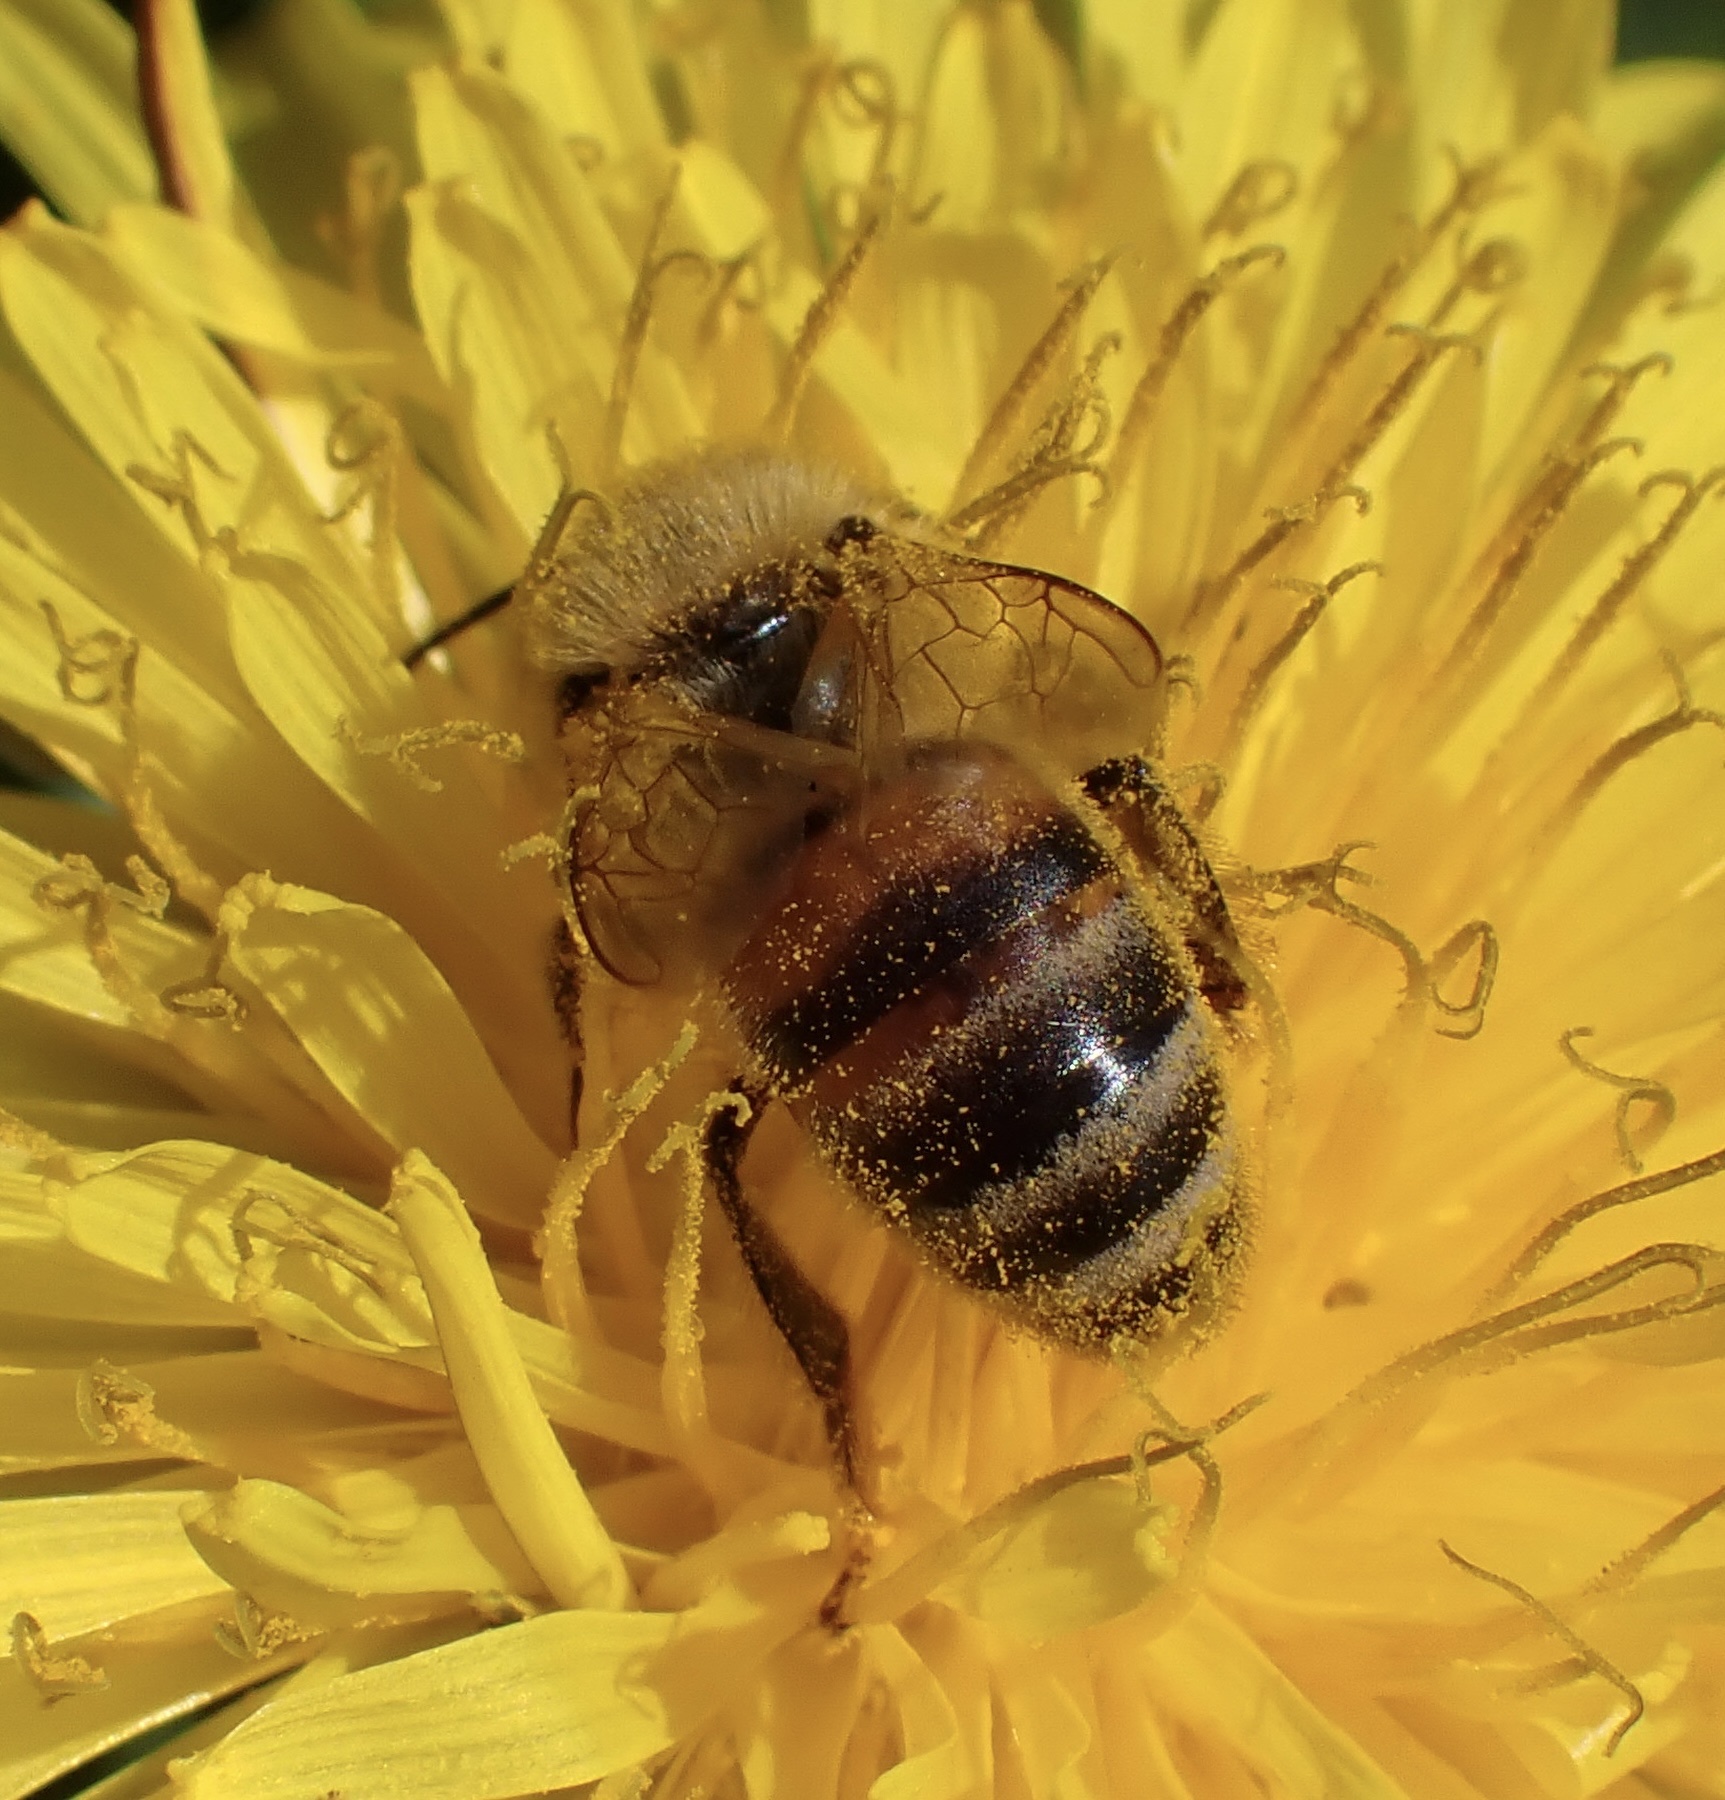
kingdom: Animalia
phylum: Arthropoda
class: Insecta
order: Hymenoptera
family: Apidae
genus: Apis
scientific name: Apis mellifera
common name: Honey bee
